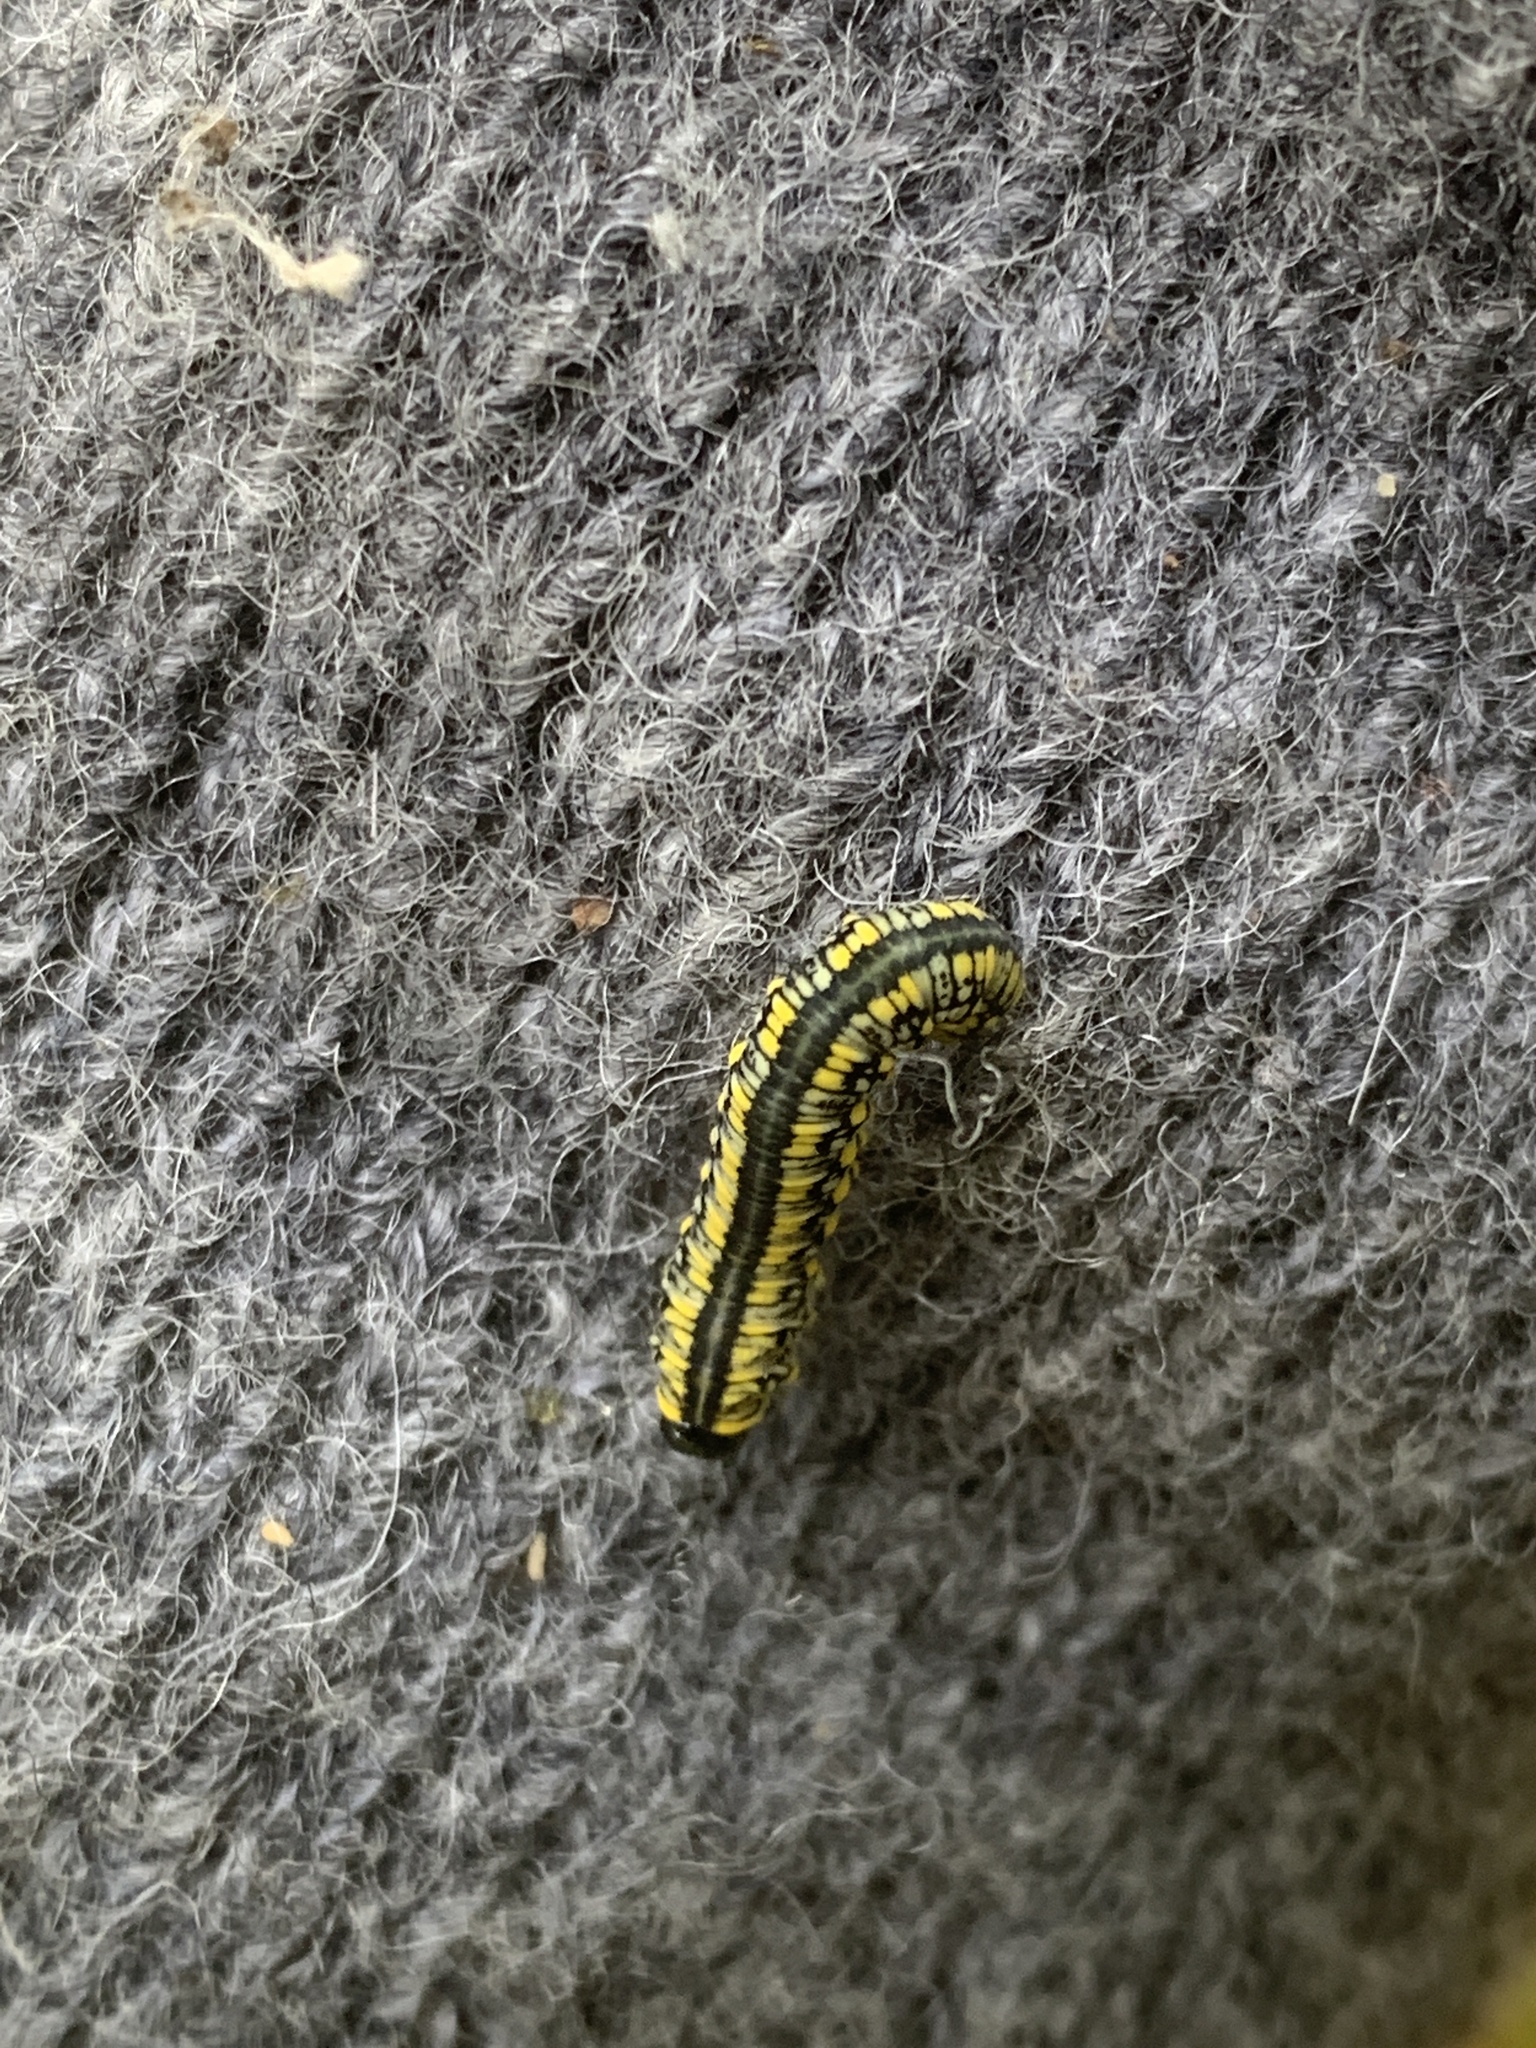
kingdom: Animalia
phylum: Arthropoda
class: Insecta
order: Hymenoptera
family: Diprionidae
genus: Diprion
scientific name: Diprion similis
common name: Pine sawfly
